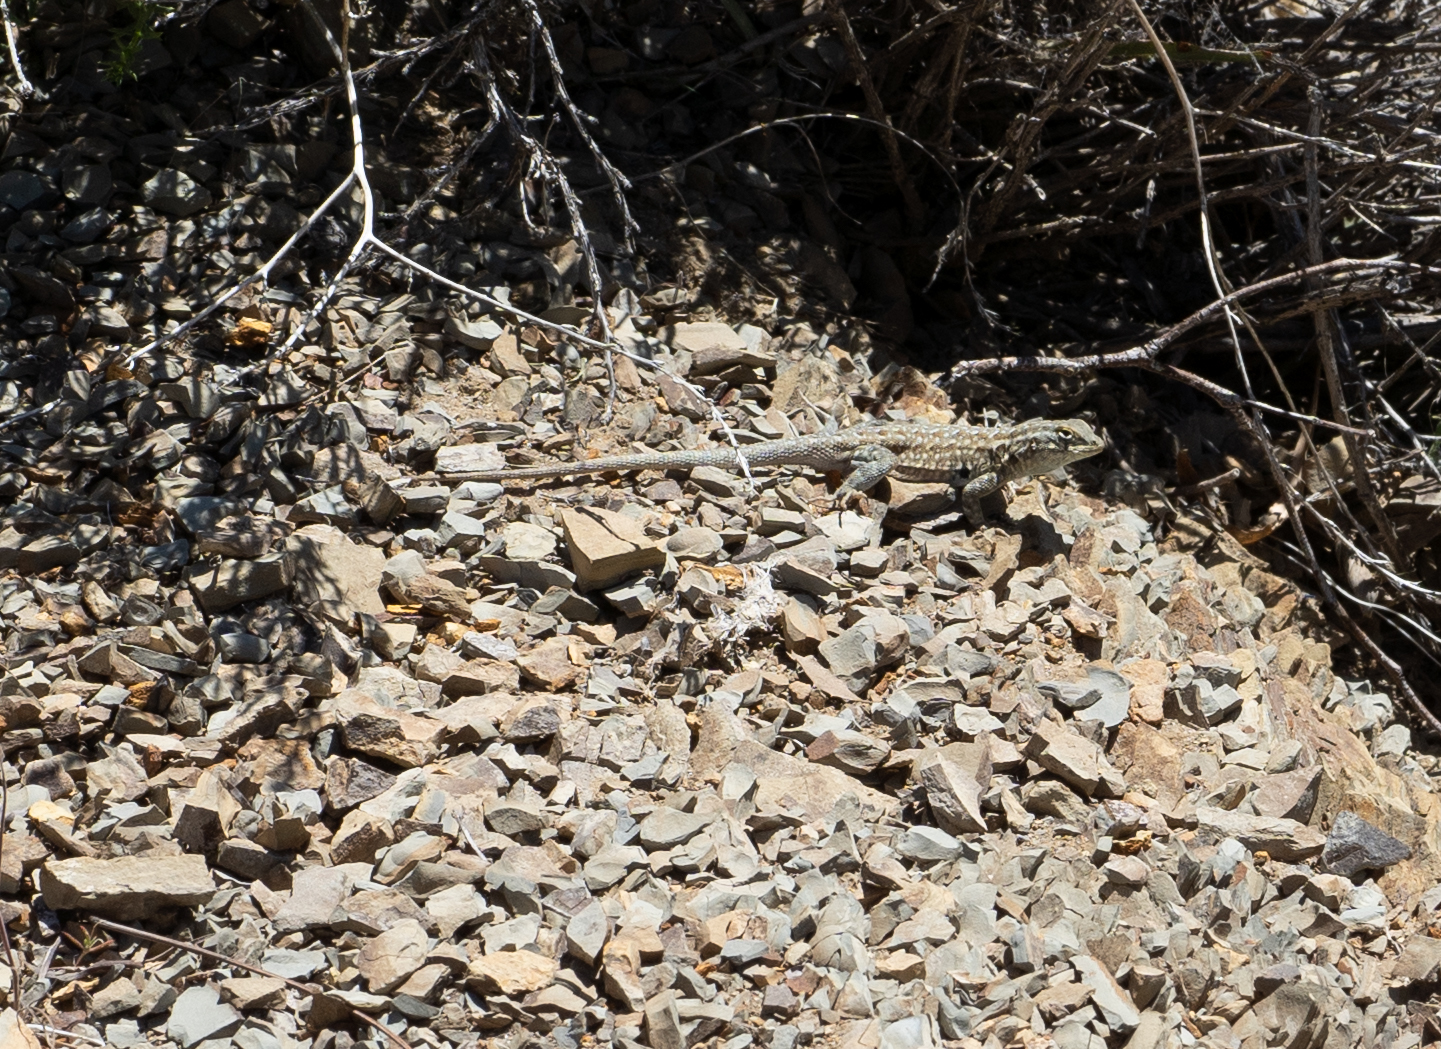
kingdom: Animalia
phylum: Chordata
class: Squamata
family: Phrynosomatidae
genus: Uta
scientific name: Uta stansburiana
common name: Side-blotched lizard
